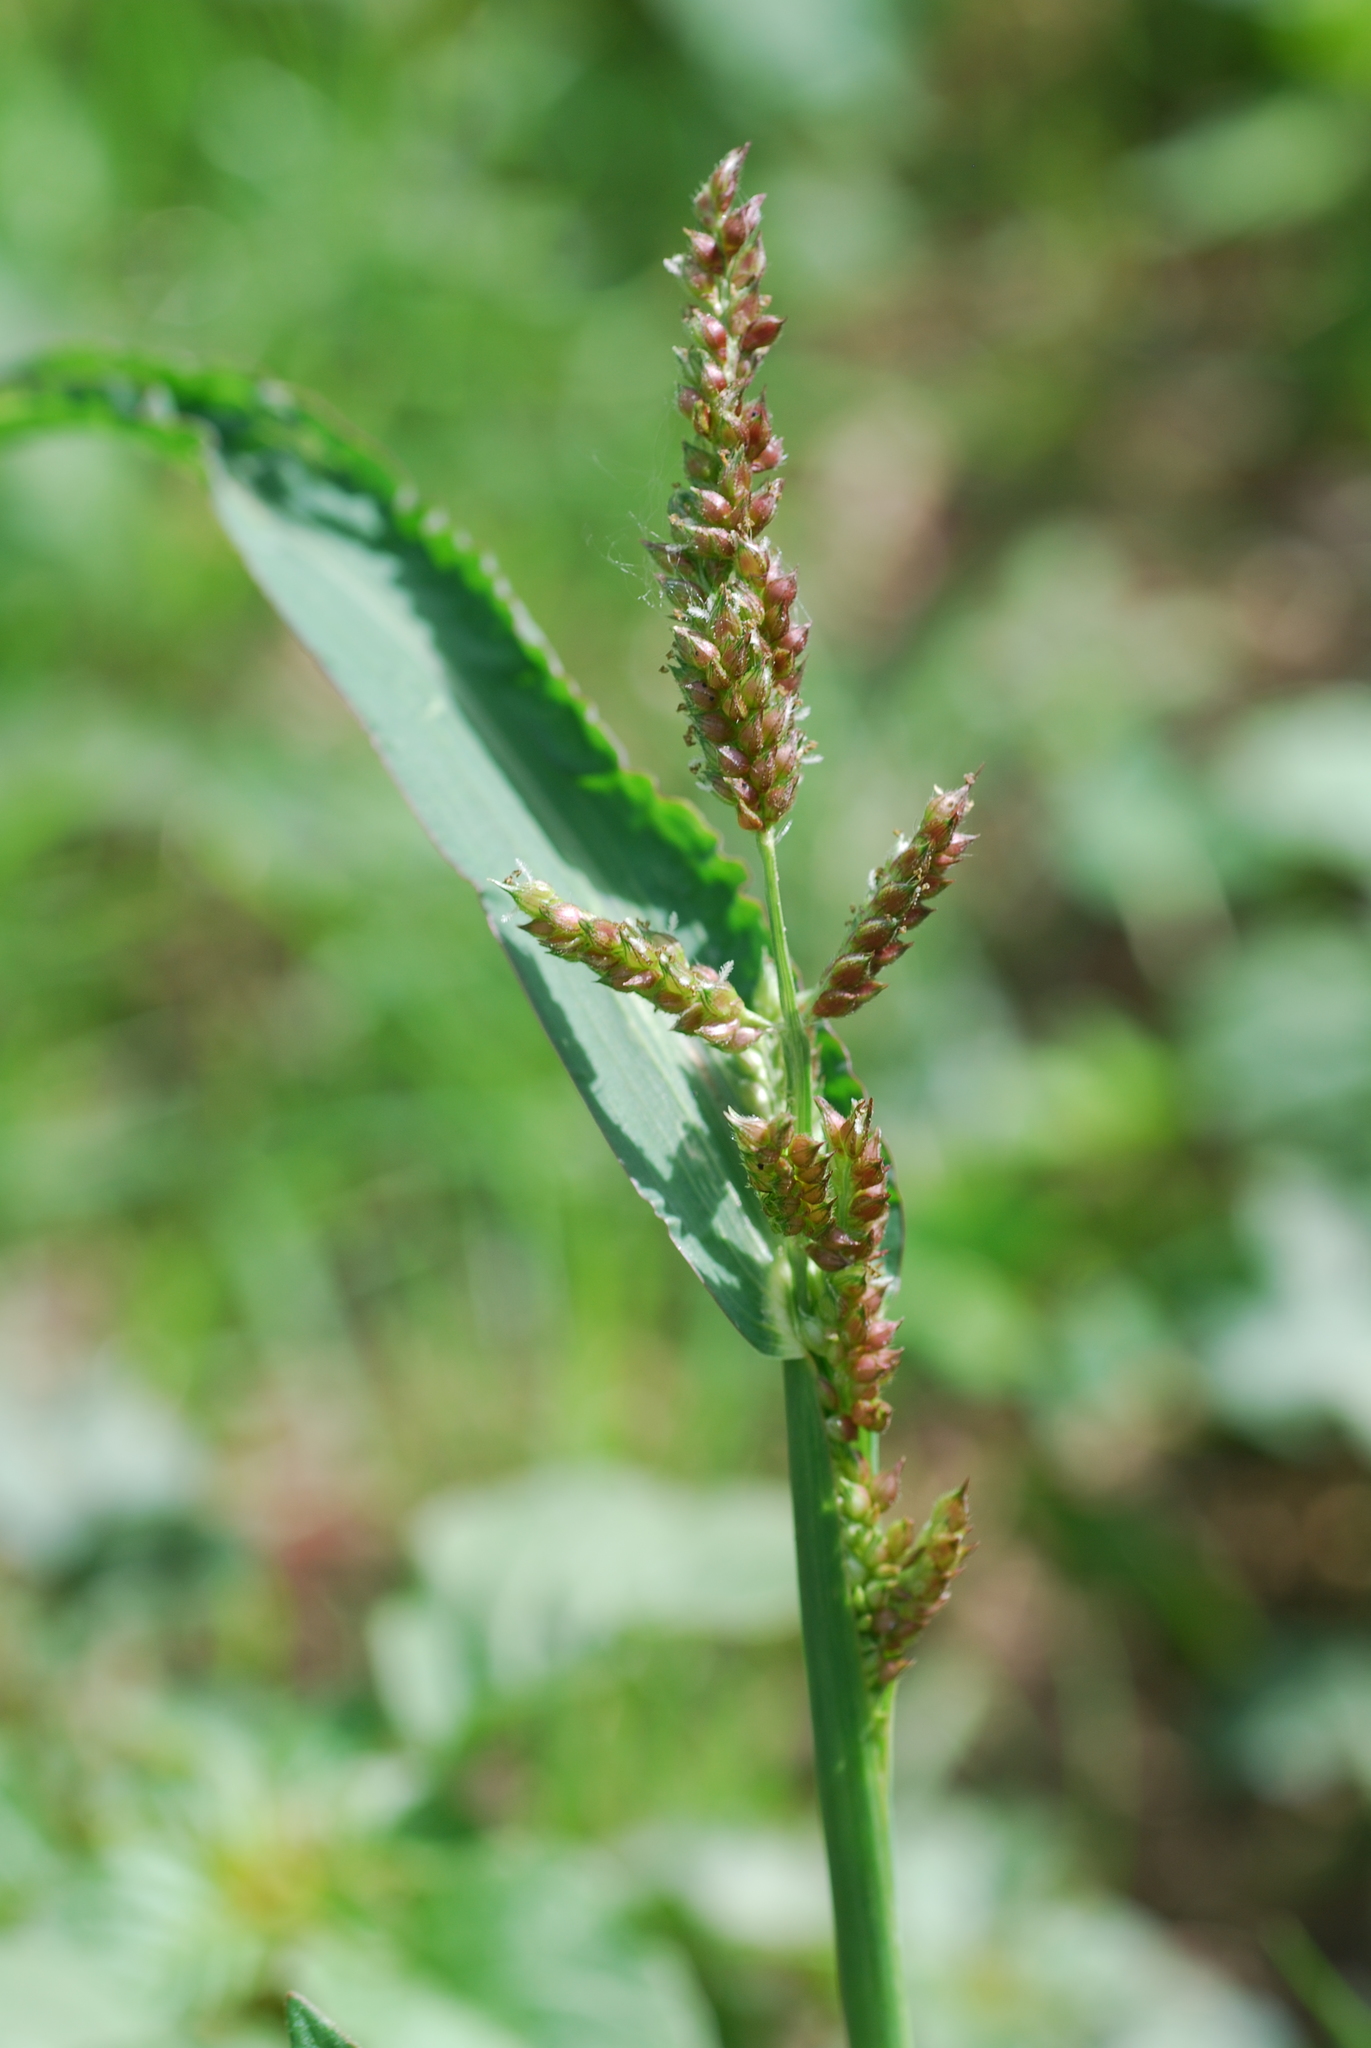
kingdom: Plantae
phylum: Tracheophyta
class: Liliopsida
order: Poales
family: Poaceae
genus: Echinochloa
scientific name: Echinochloa crus-galli
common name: Cockspur
